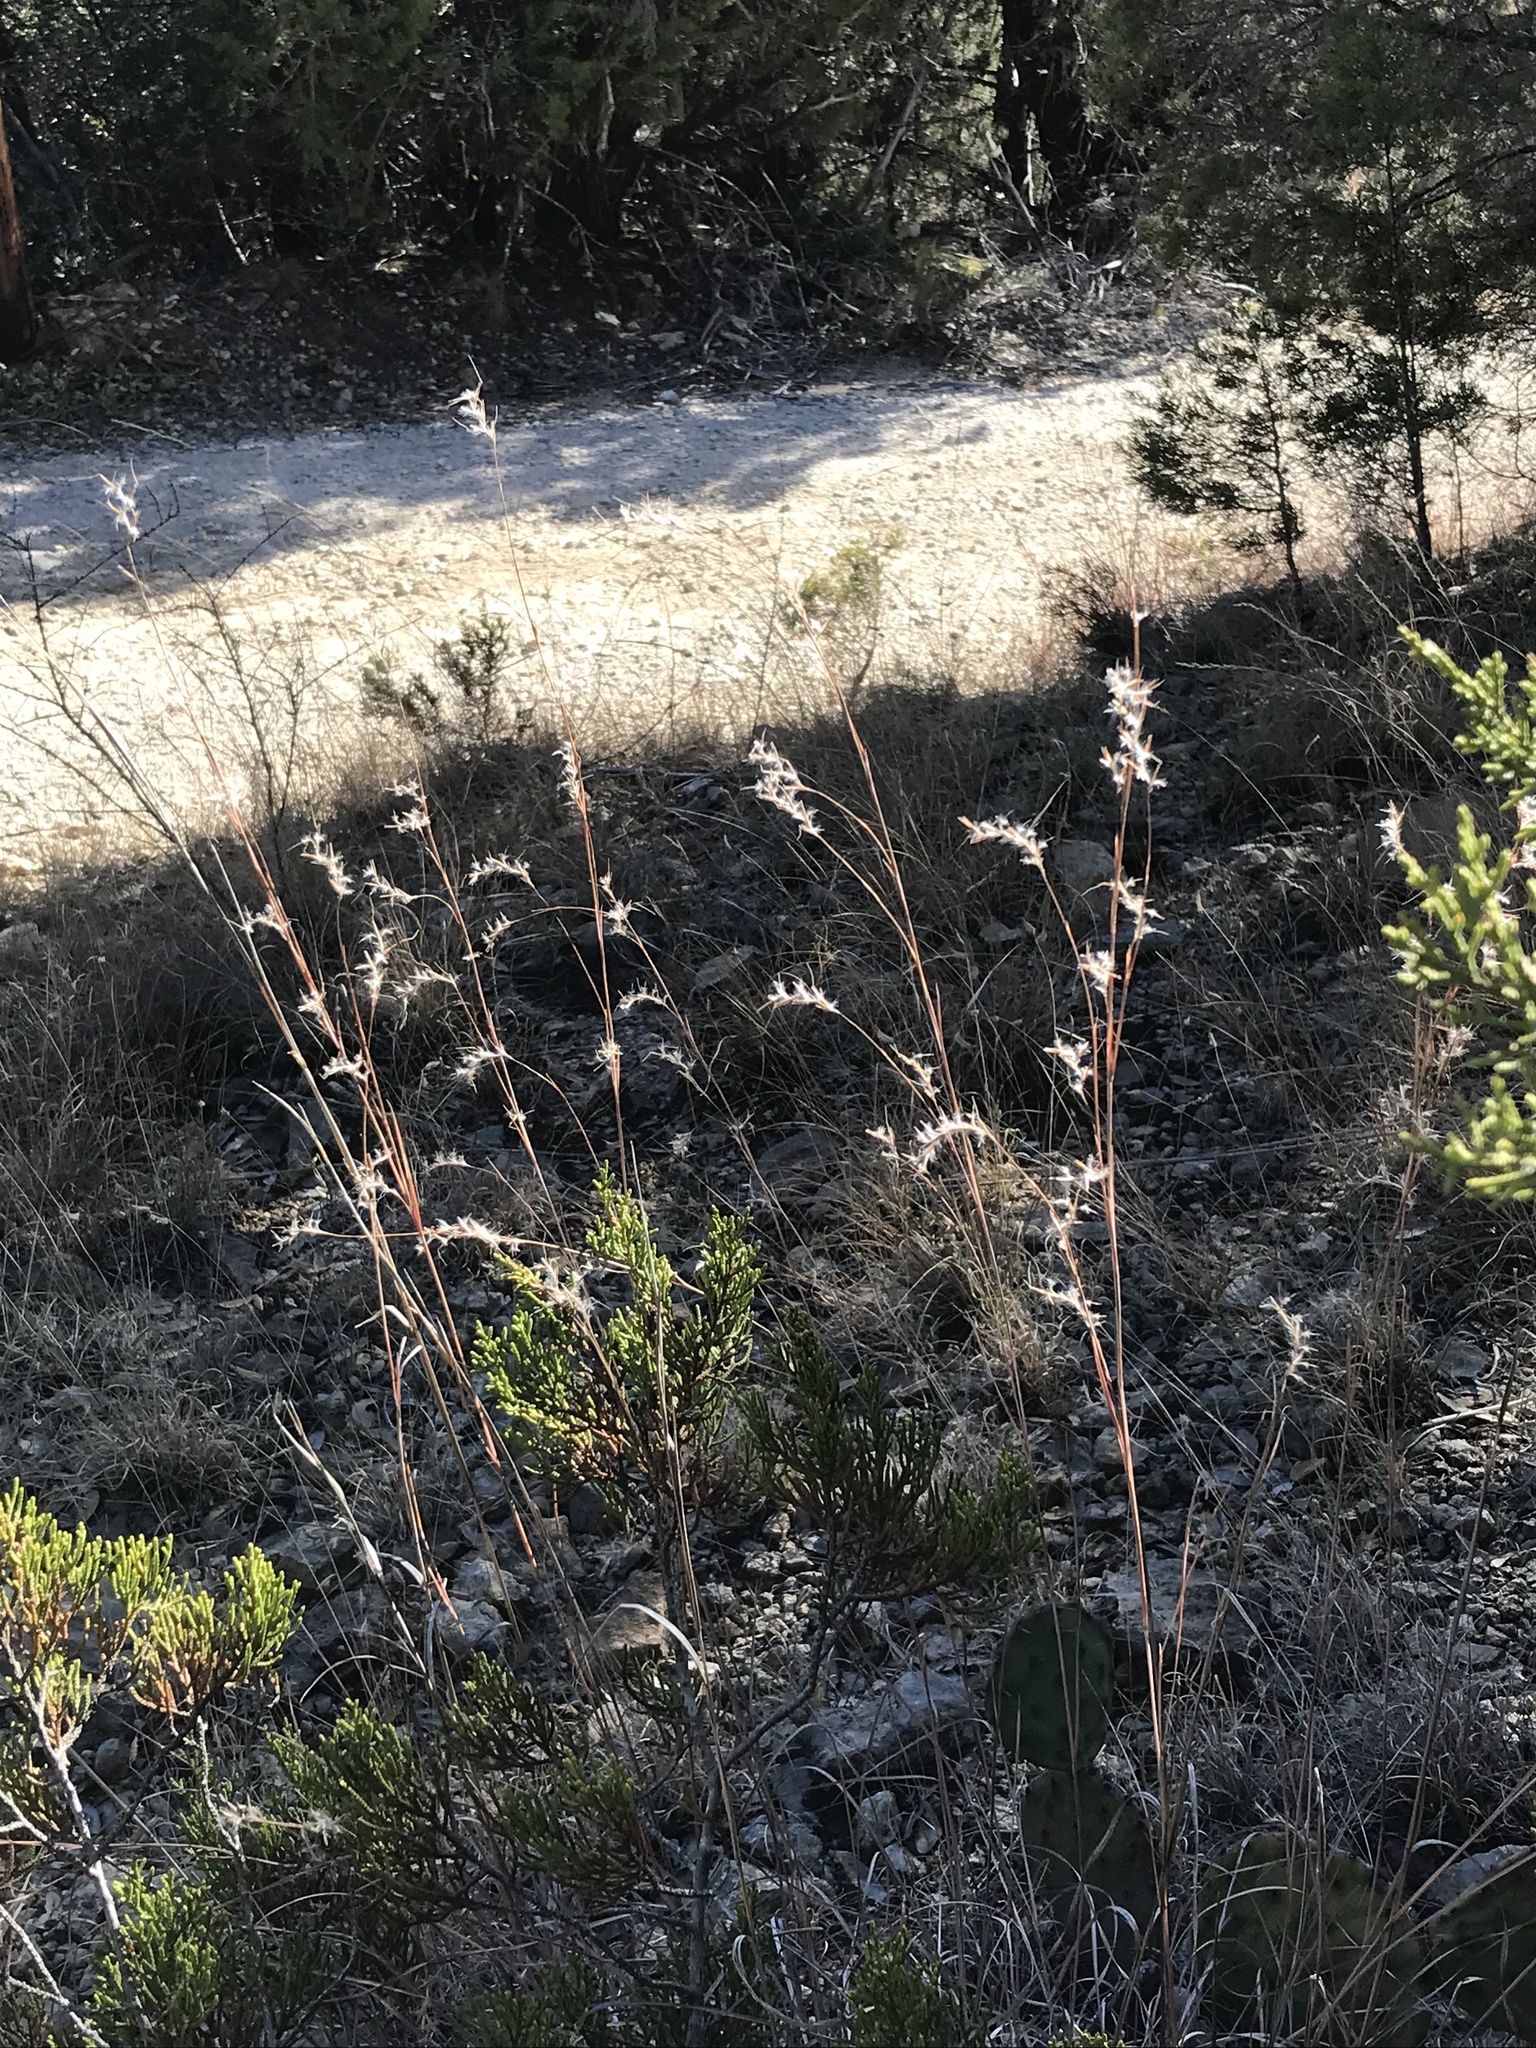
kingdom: Plantae
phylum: Tracheophyta
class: Liliopsida
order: Poales
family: Poaceae
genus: Schizachyrium
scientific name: Schizachyrium scoparium
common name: Little bluestem
